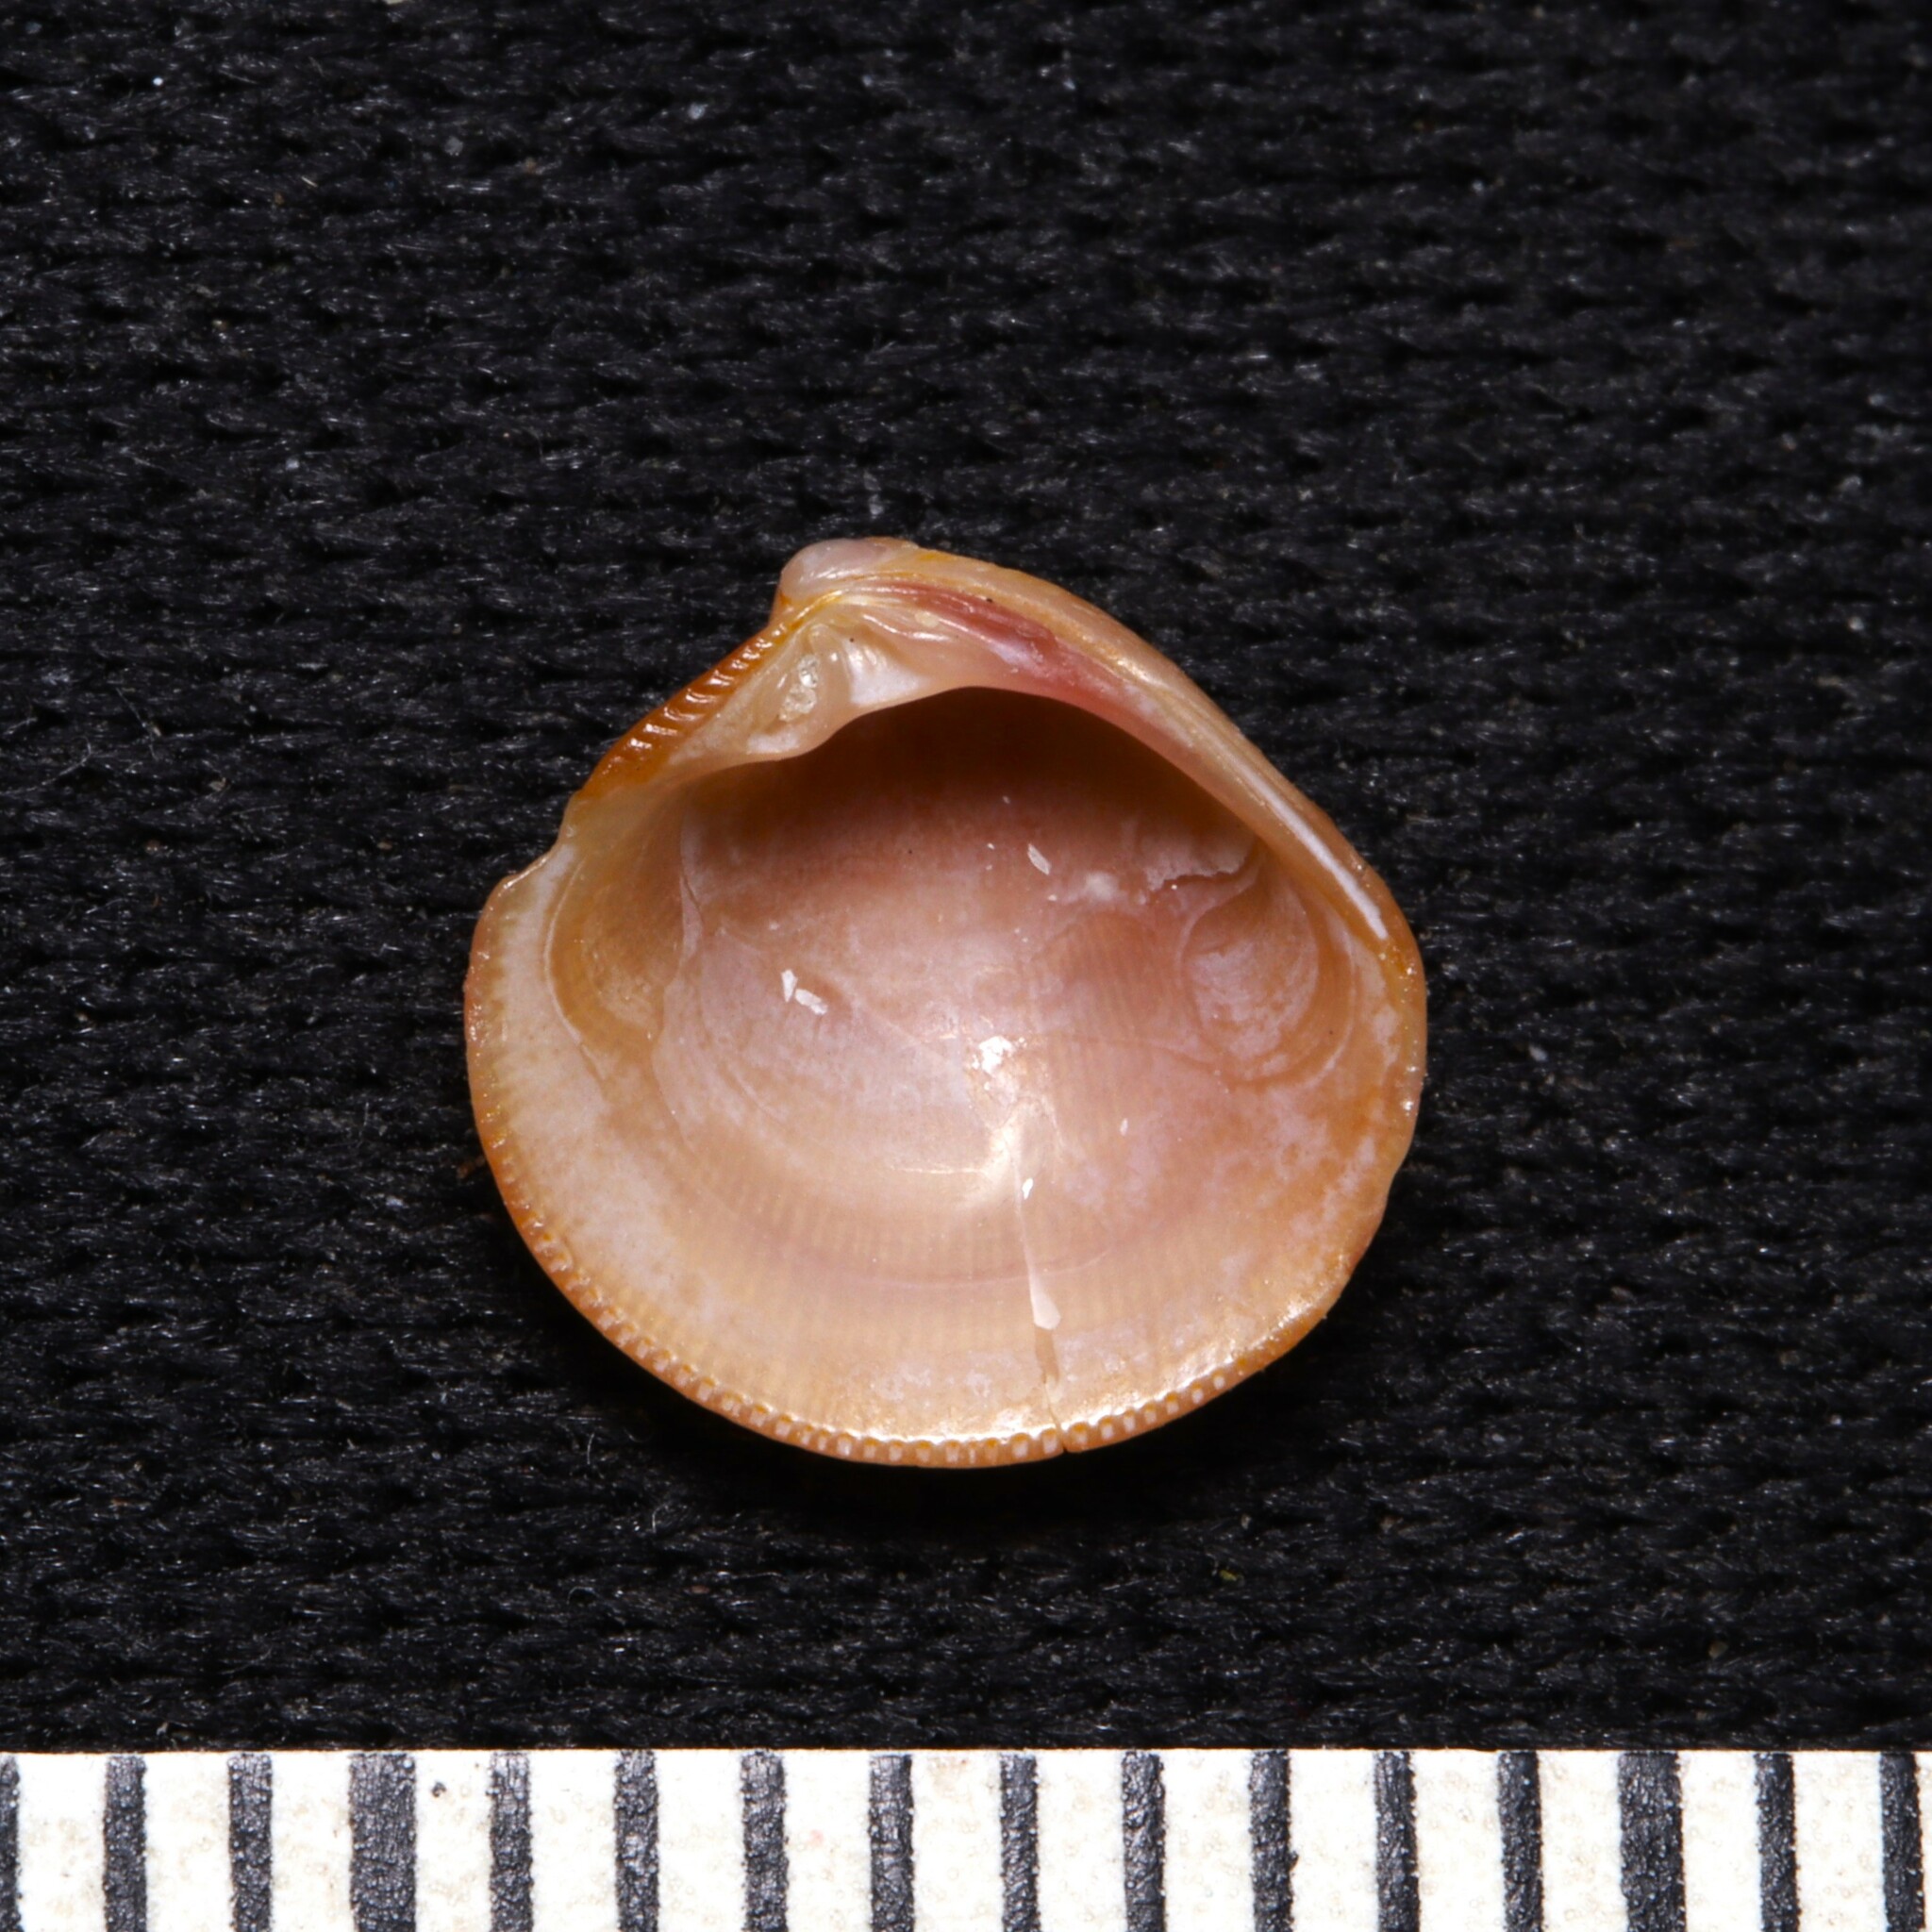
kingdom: Animalia
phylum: Mollusca
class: Bivalvia
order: Venerida
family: Veneridae
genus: Chionopsis
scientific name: Chionopsis intapurpurea
